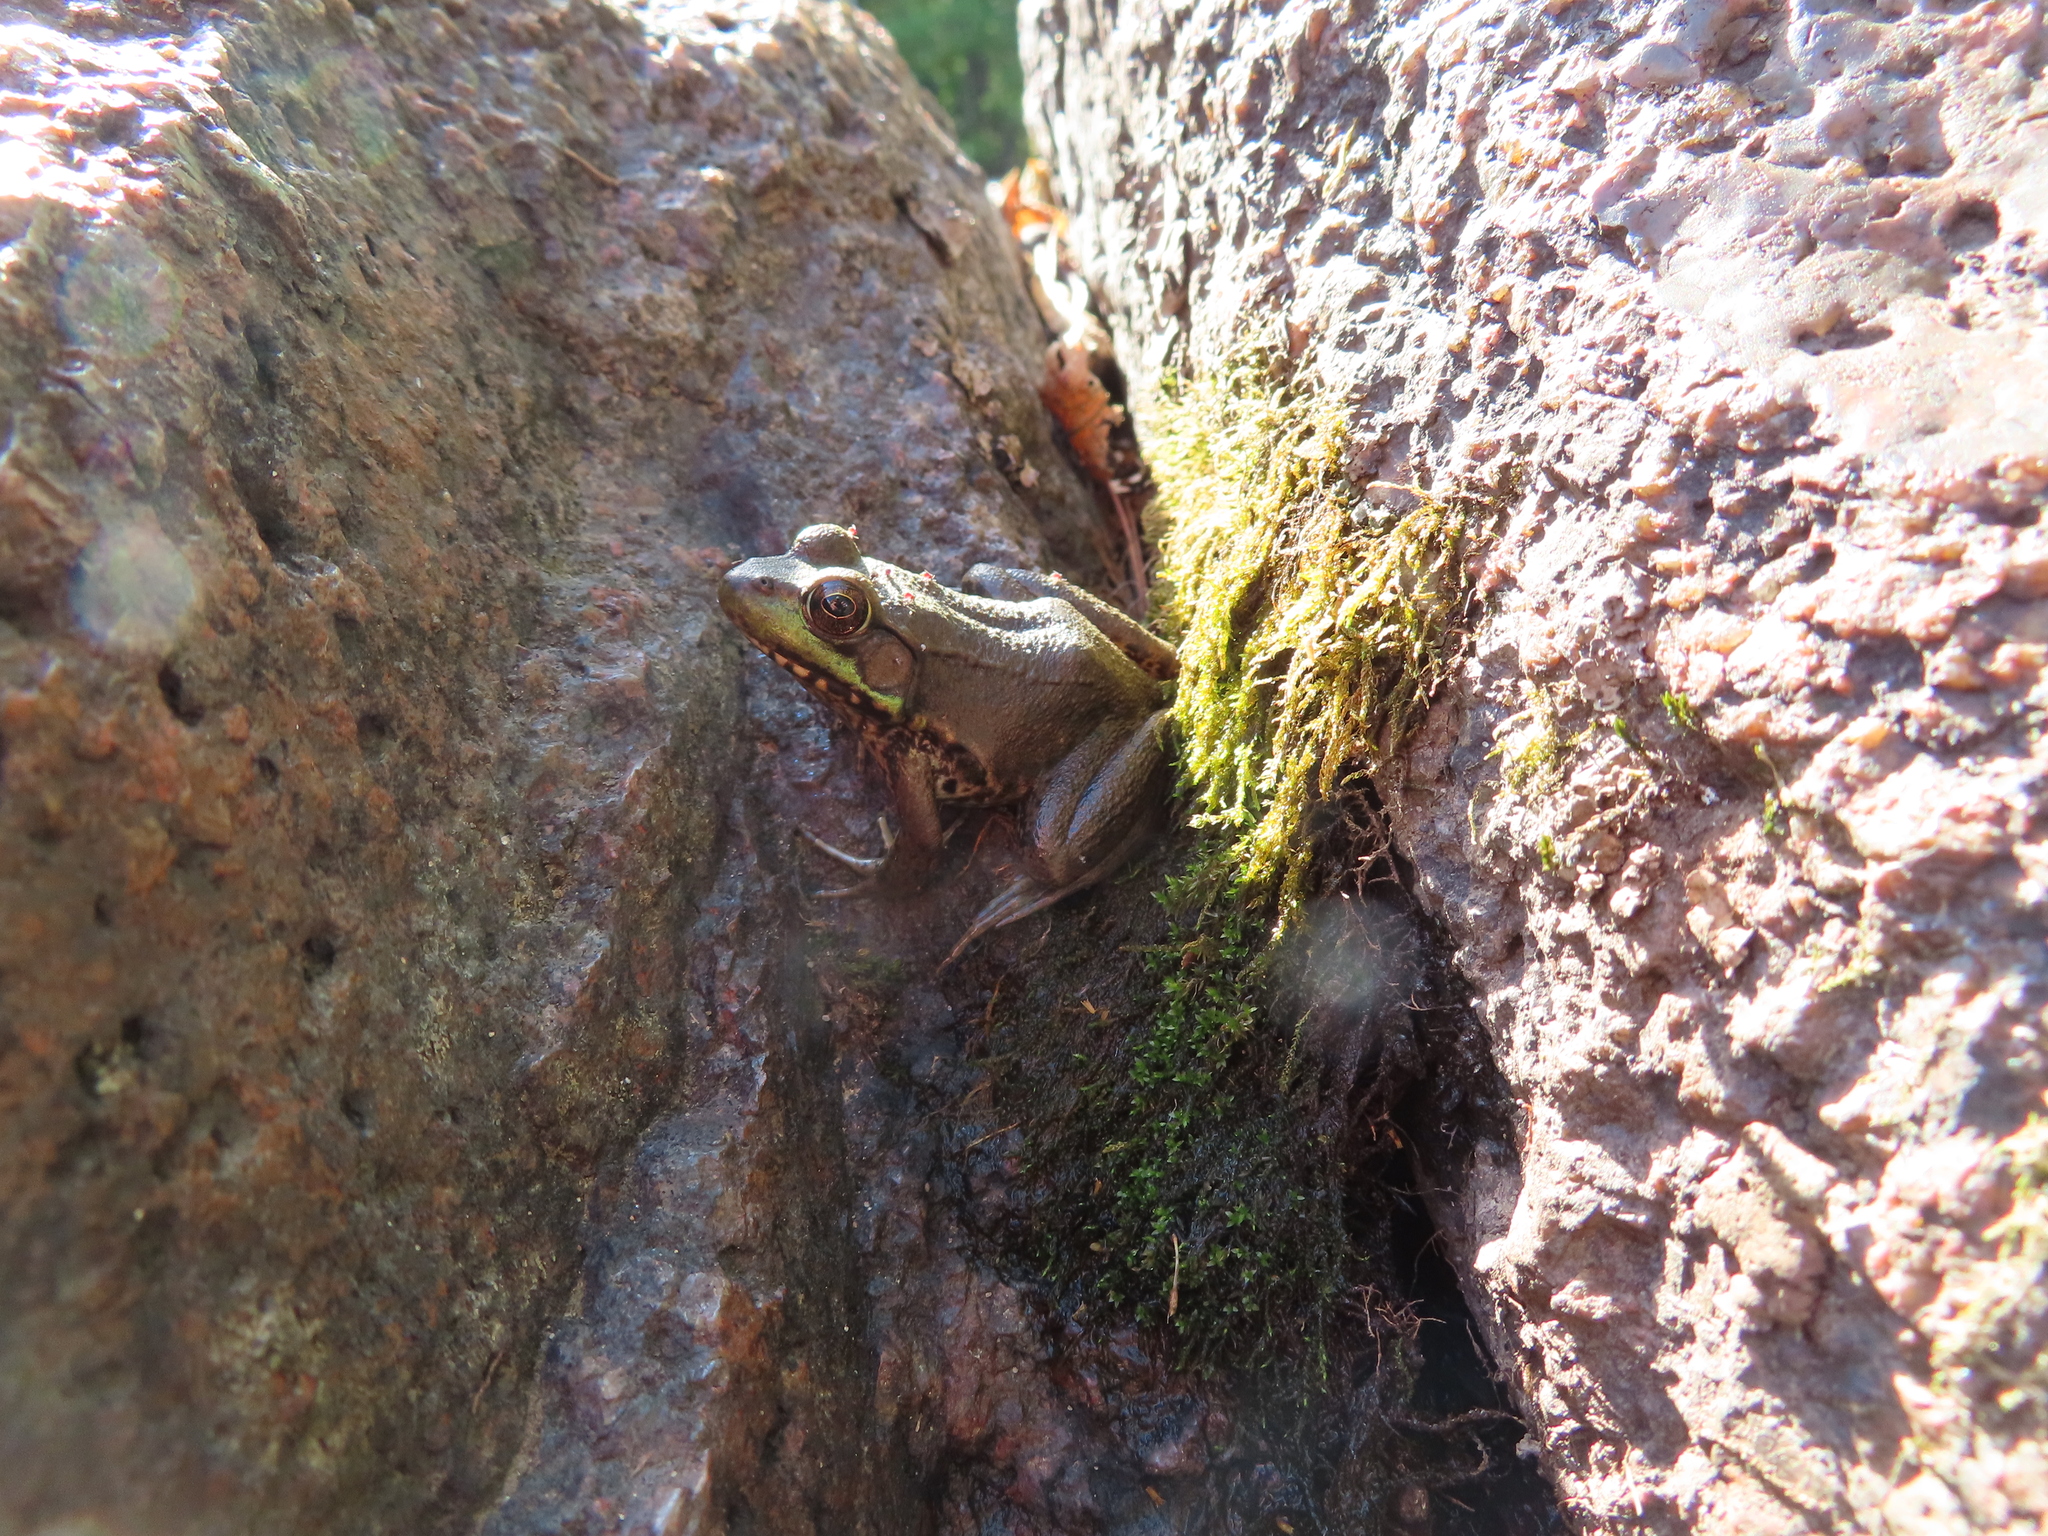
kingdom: Animalia
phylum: Chordata
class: Amphibia
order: Anura
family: Ranidae
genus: Lithobates
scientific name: Lithobates clamitans
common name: Green frog
